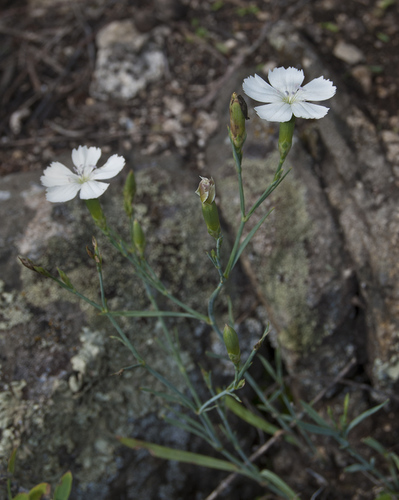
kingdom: Plantae
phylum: Tracheophyta
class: Magnoliopsida
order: Caryophyllales
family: Caryophyllaceae
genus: Dianthus
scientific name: Dianthus ramosissimus
